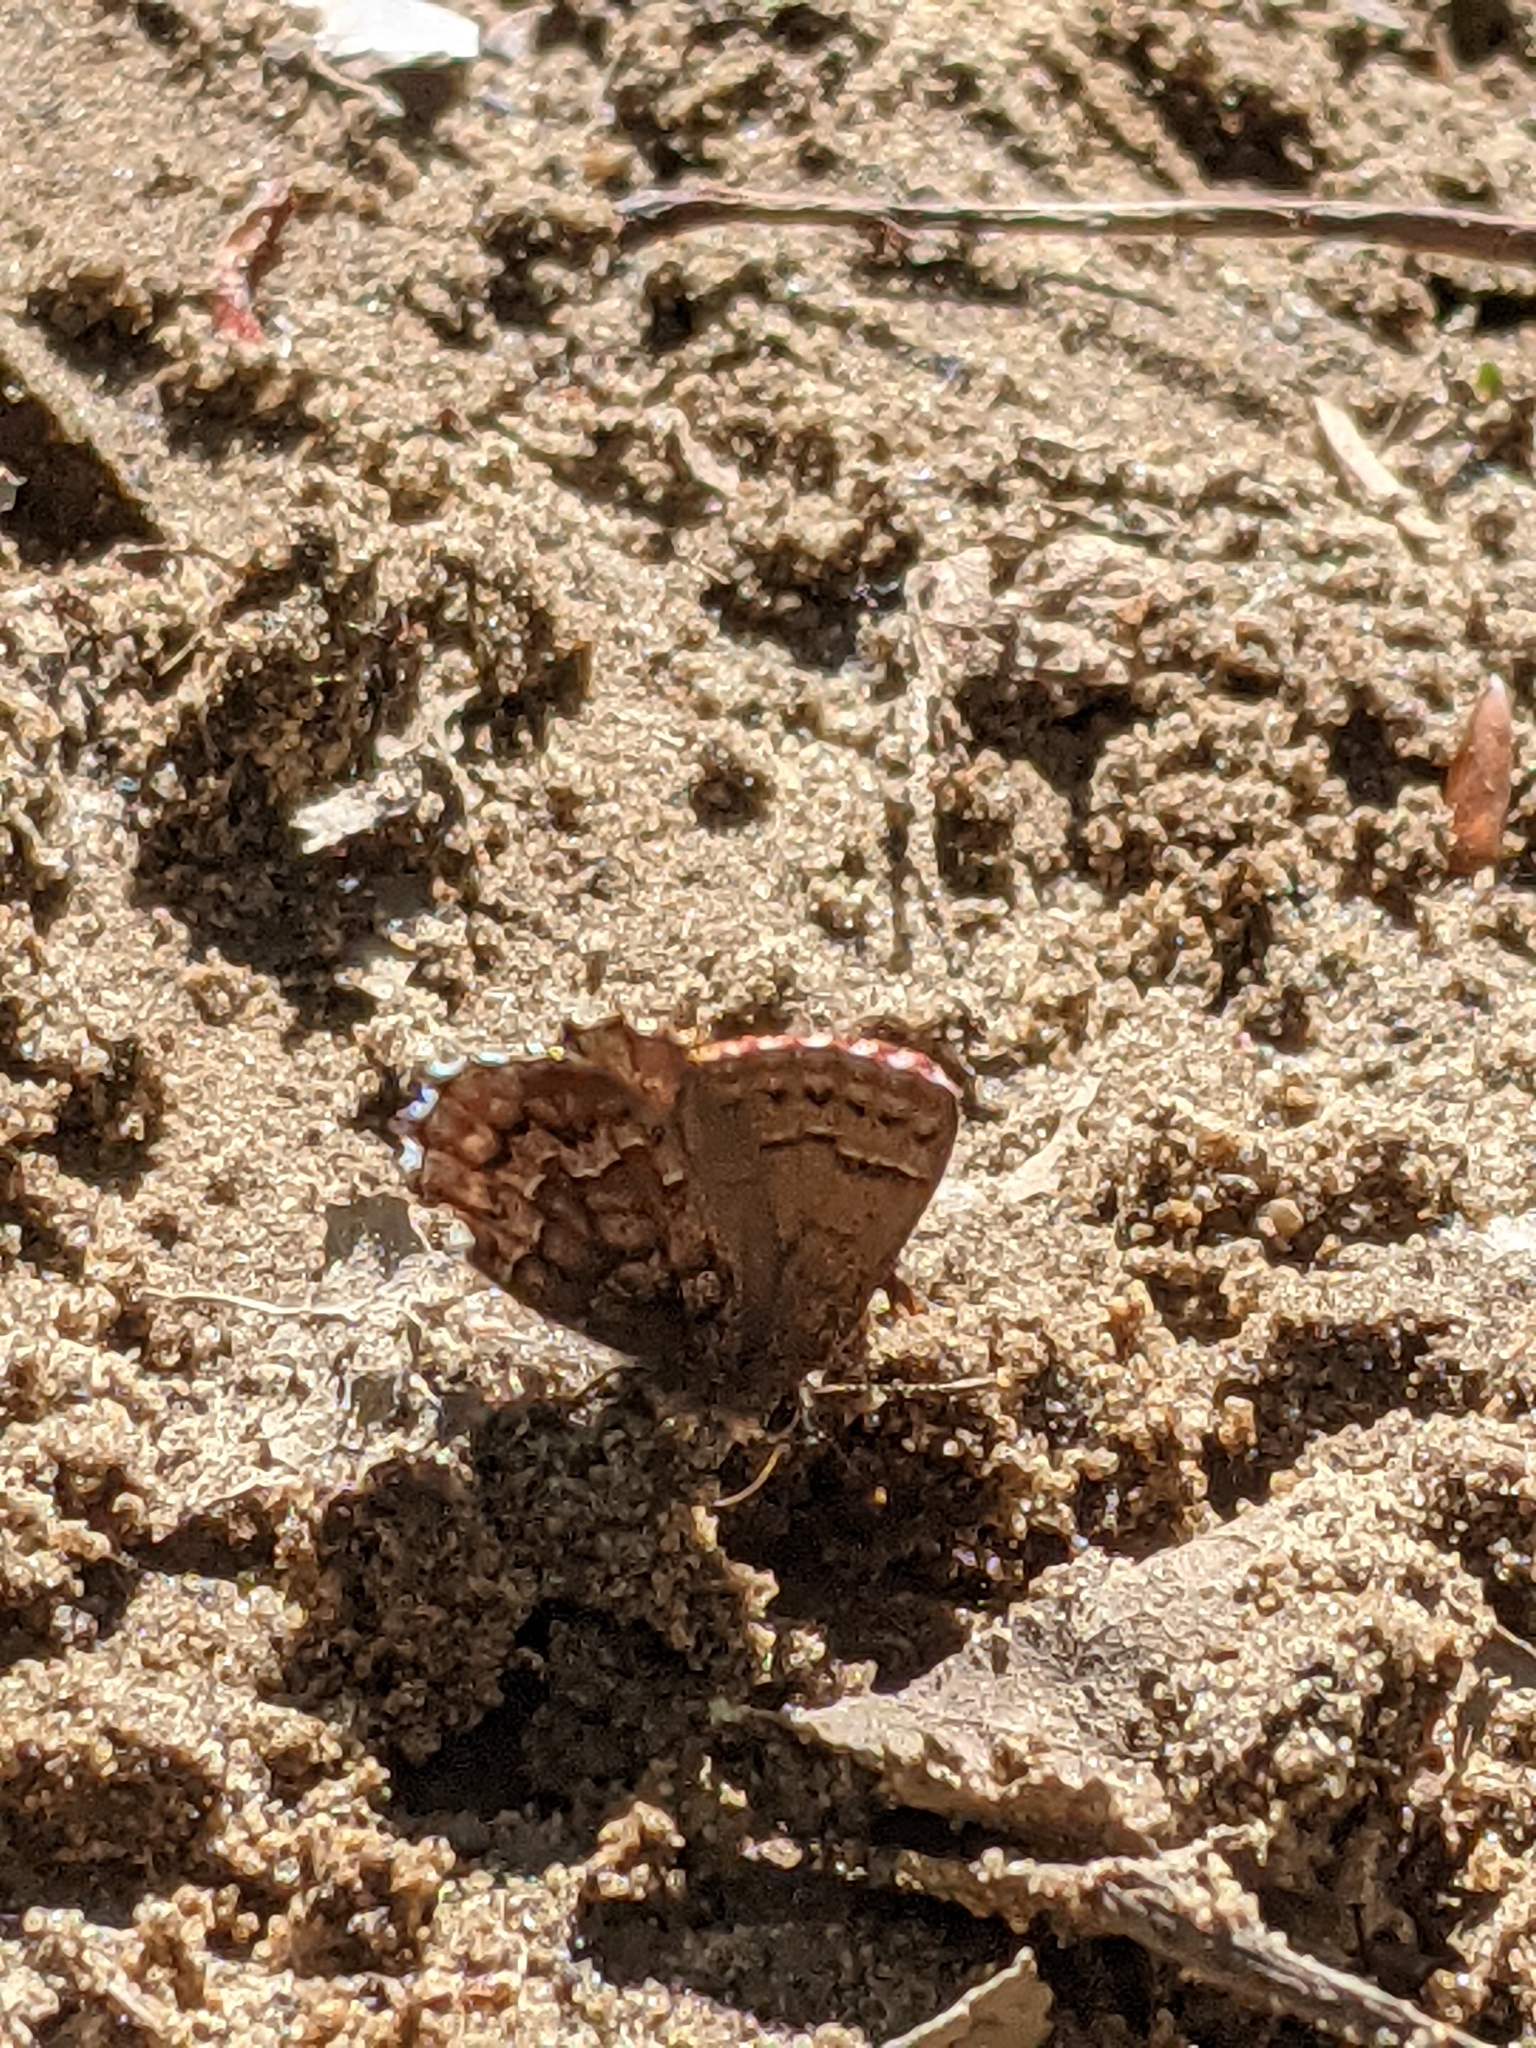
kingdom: Animalia
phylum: Arthropoda
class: Insecta
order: Lepidoptera
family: Lycaenidae
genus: Incisalia
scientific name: Incisalia niphon
